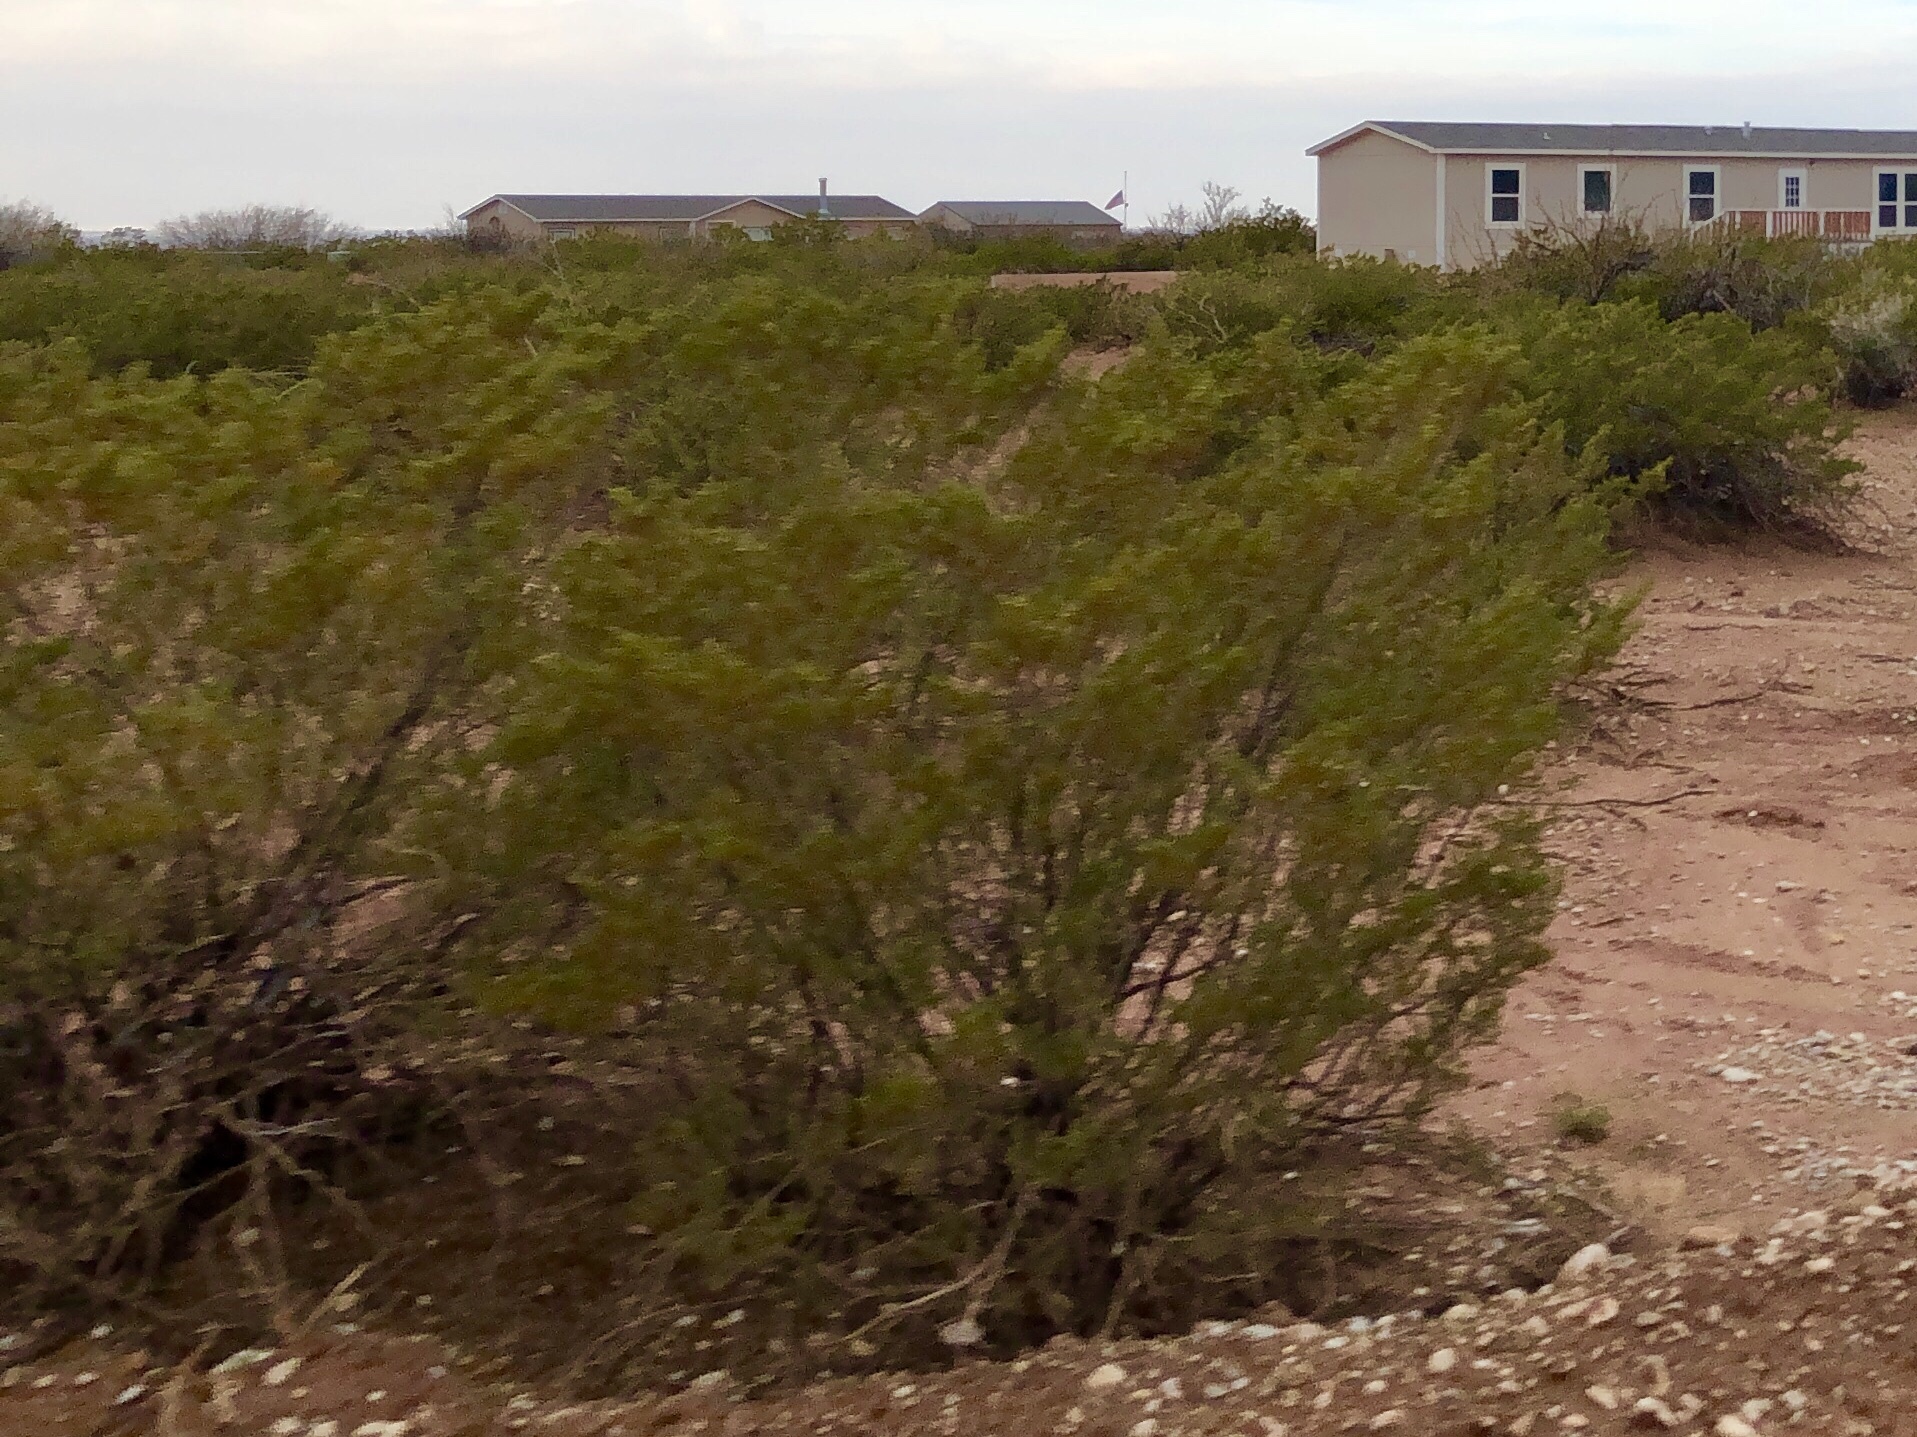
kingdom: Plantae
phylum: Tracheophyta
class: Magnoliopsida
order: Zygophyllales
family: Zygophyllaceae
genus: Larrea
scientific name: Larrea tridentata
